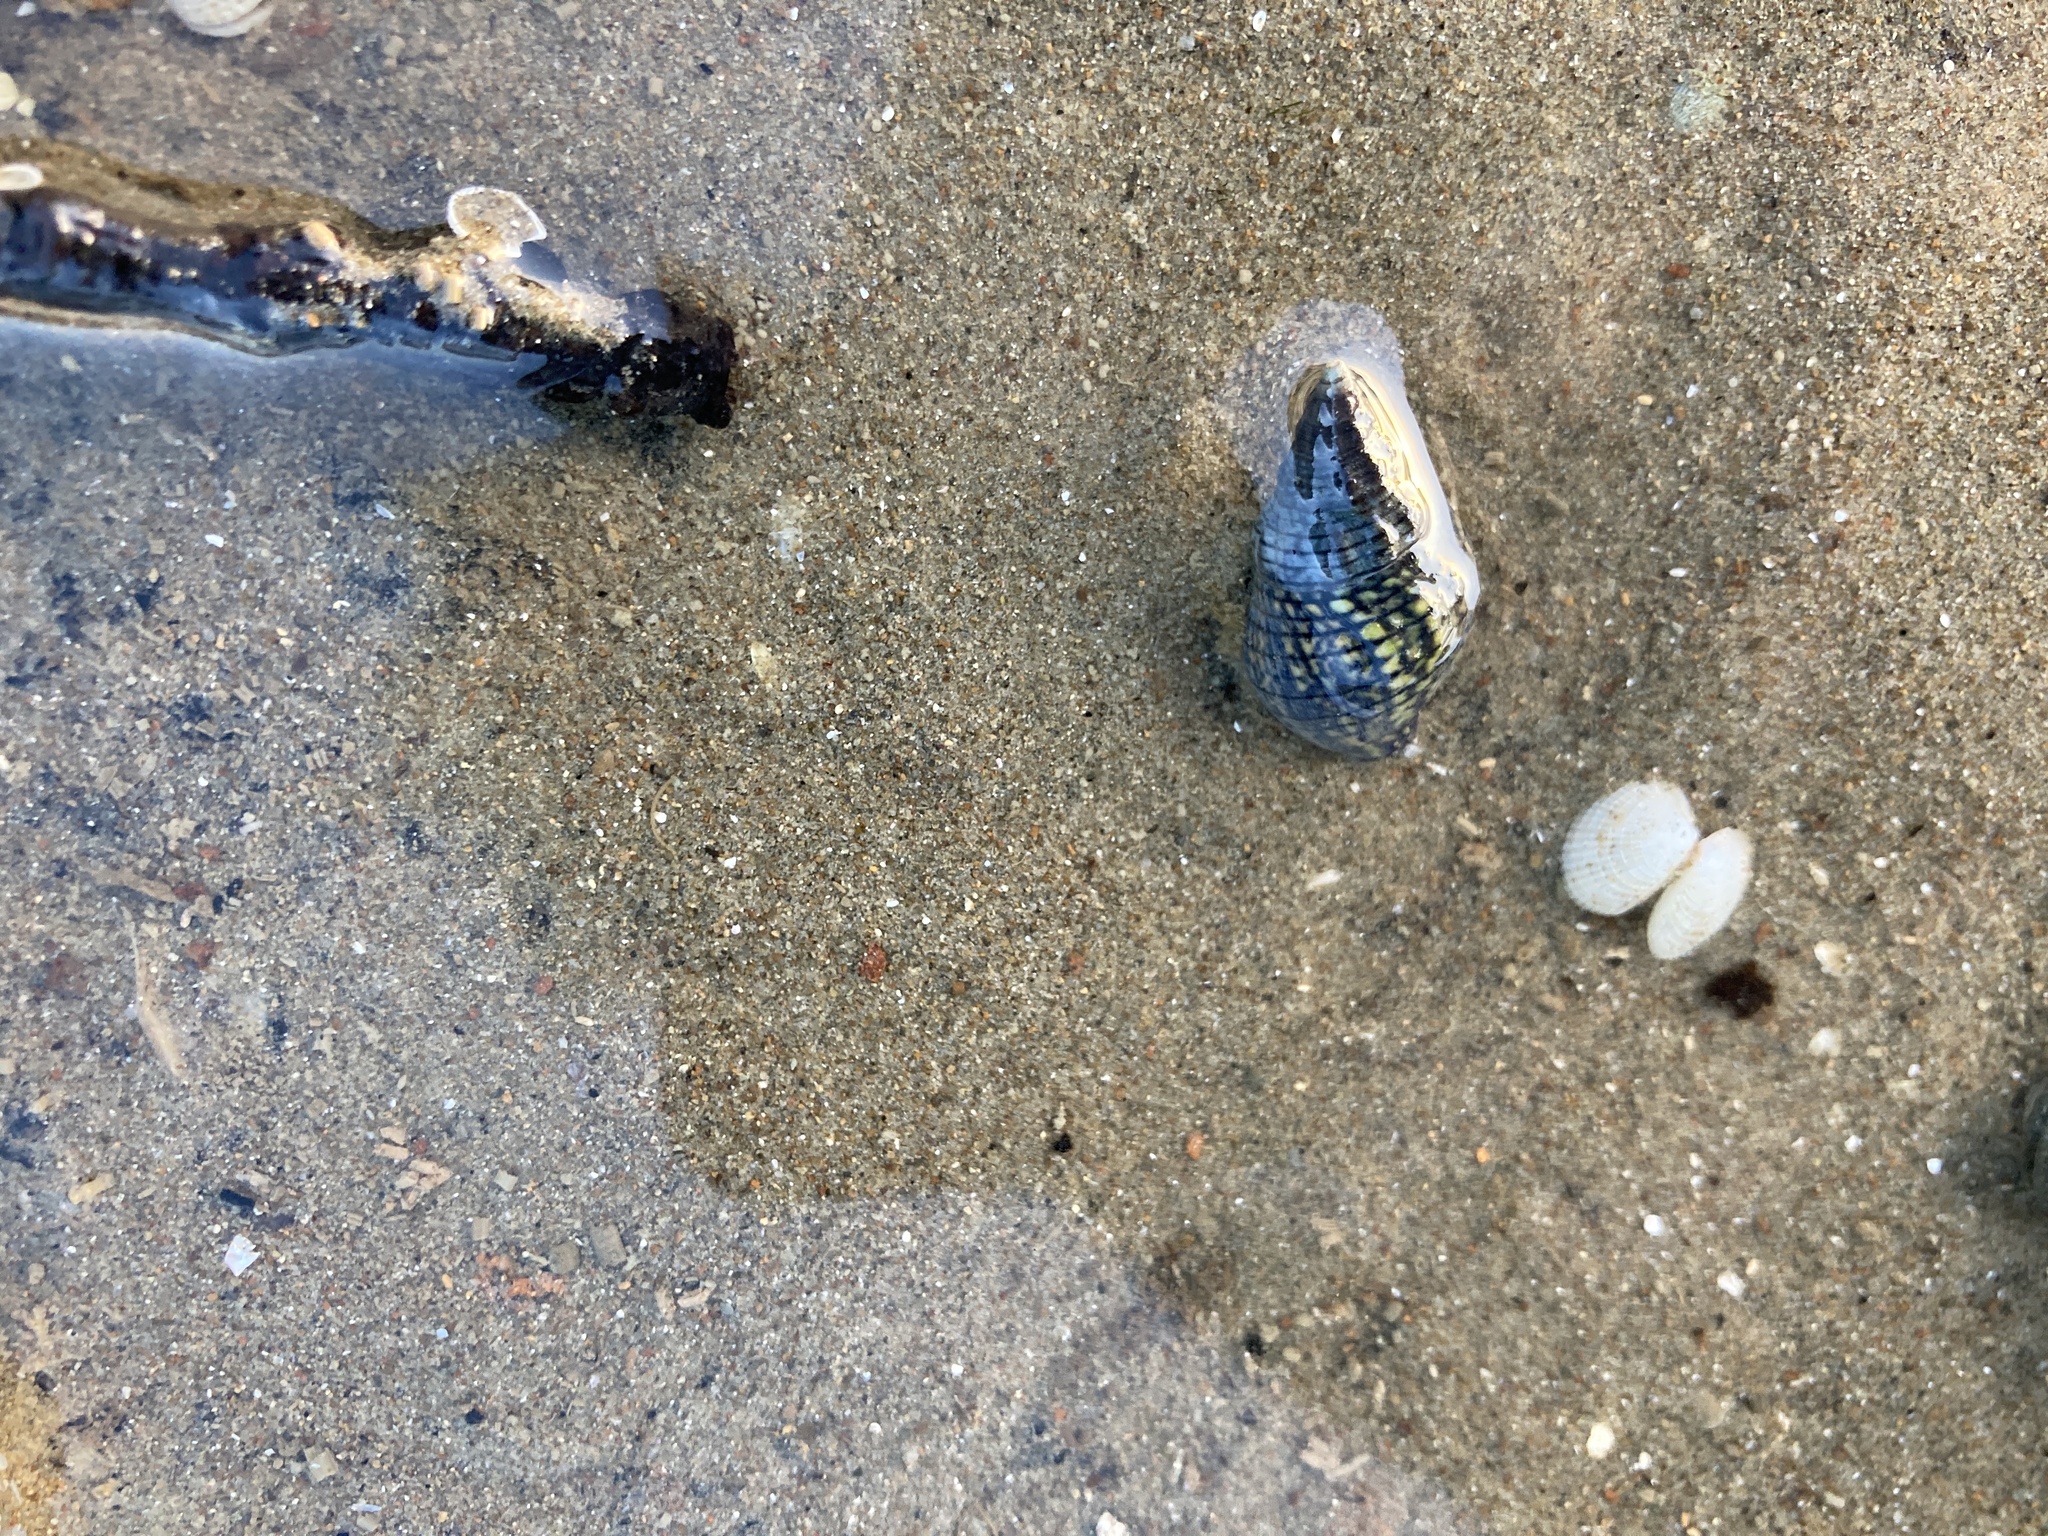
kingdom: Animalia
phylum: Mollusca
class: Gastropoda
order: Neogastropoda
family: Cominellidae
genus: Cominella
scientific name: Cominella virgata
